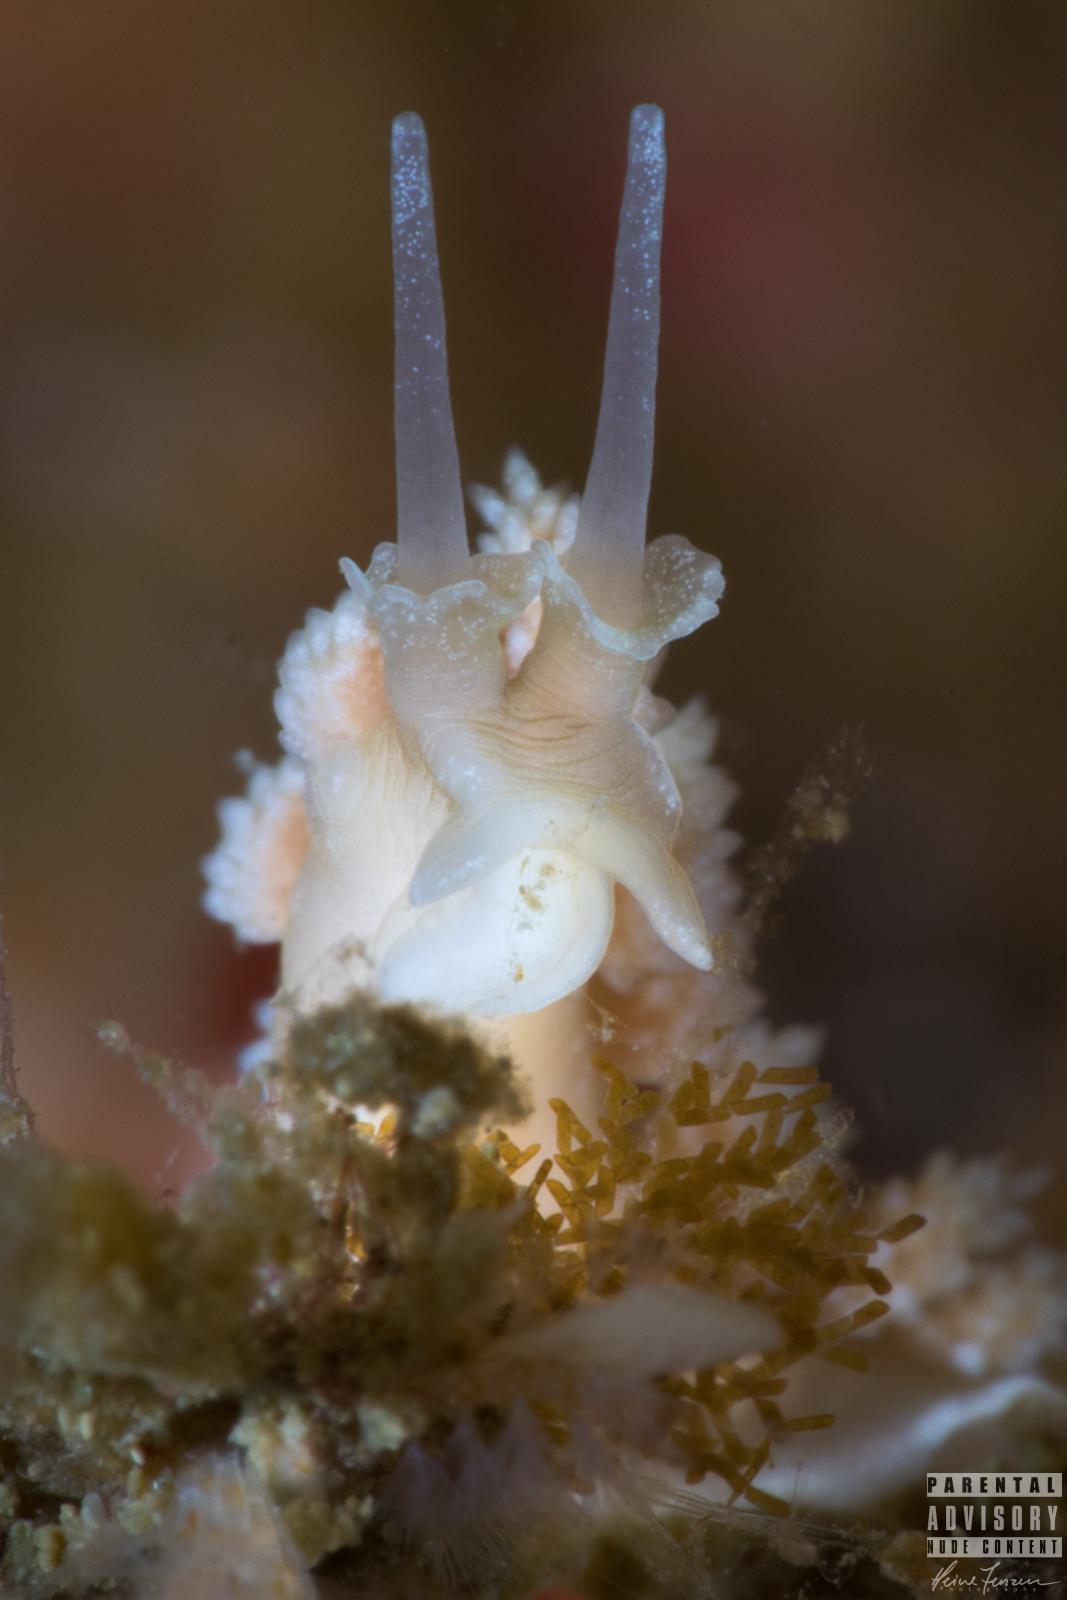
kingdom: Animalia
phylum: Mollusca
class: Gastropoda
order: Nudibranchia
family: Dotidae
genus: Doto
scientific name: Doto fragilis
